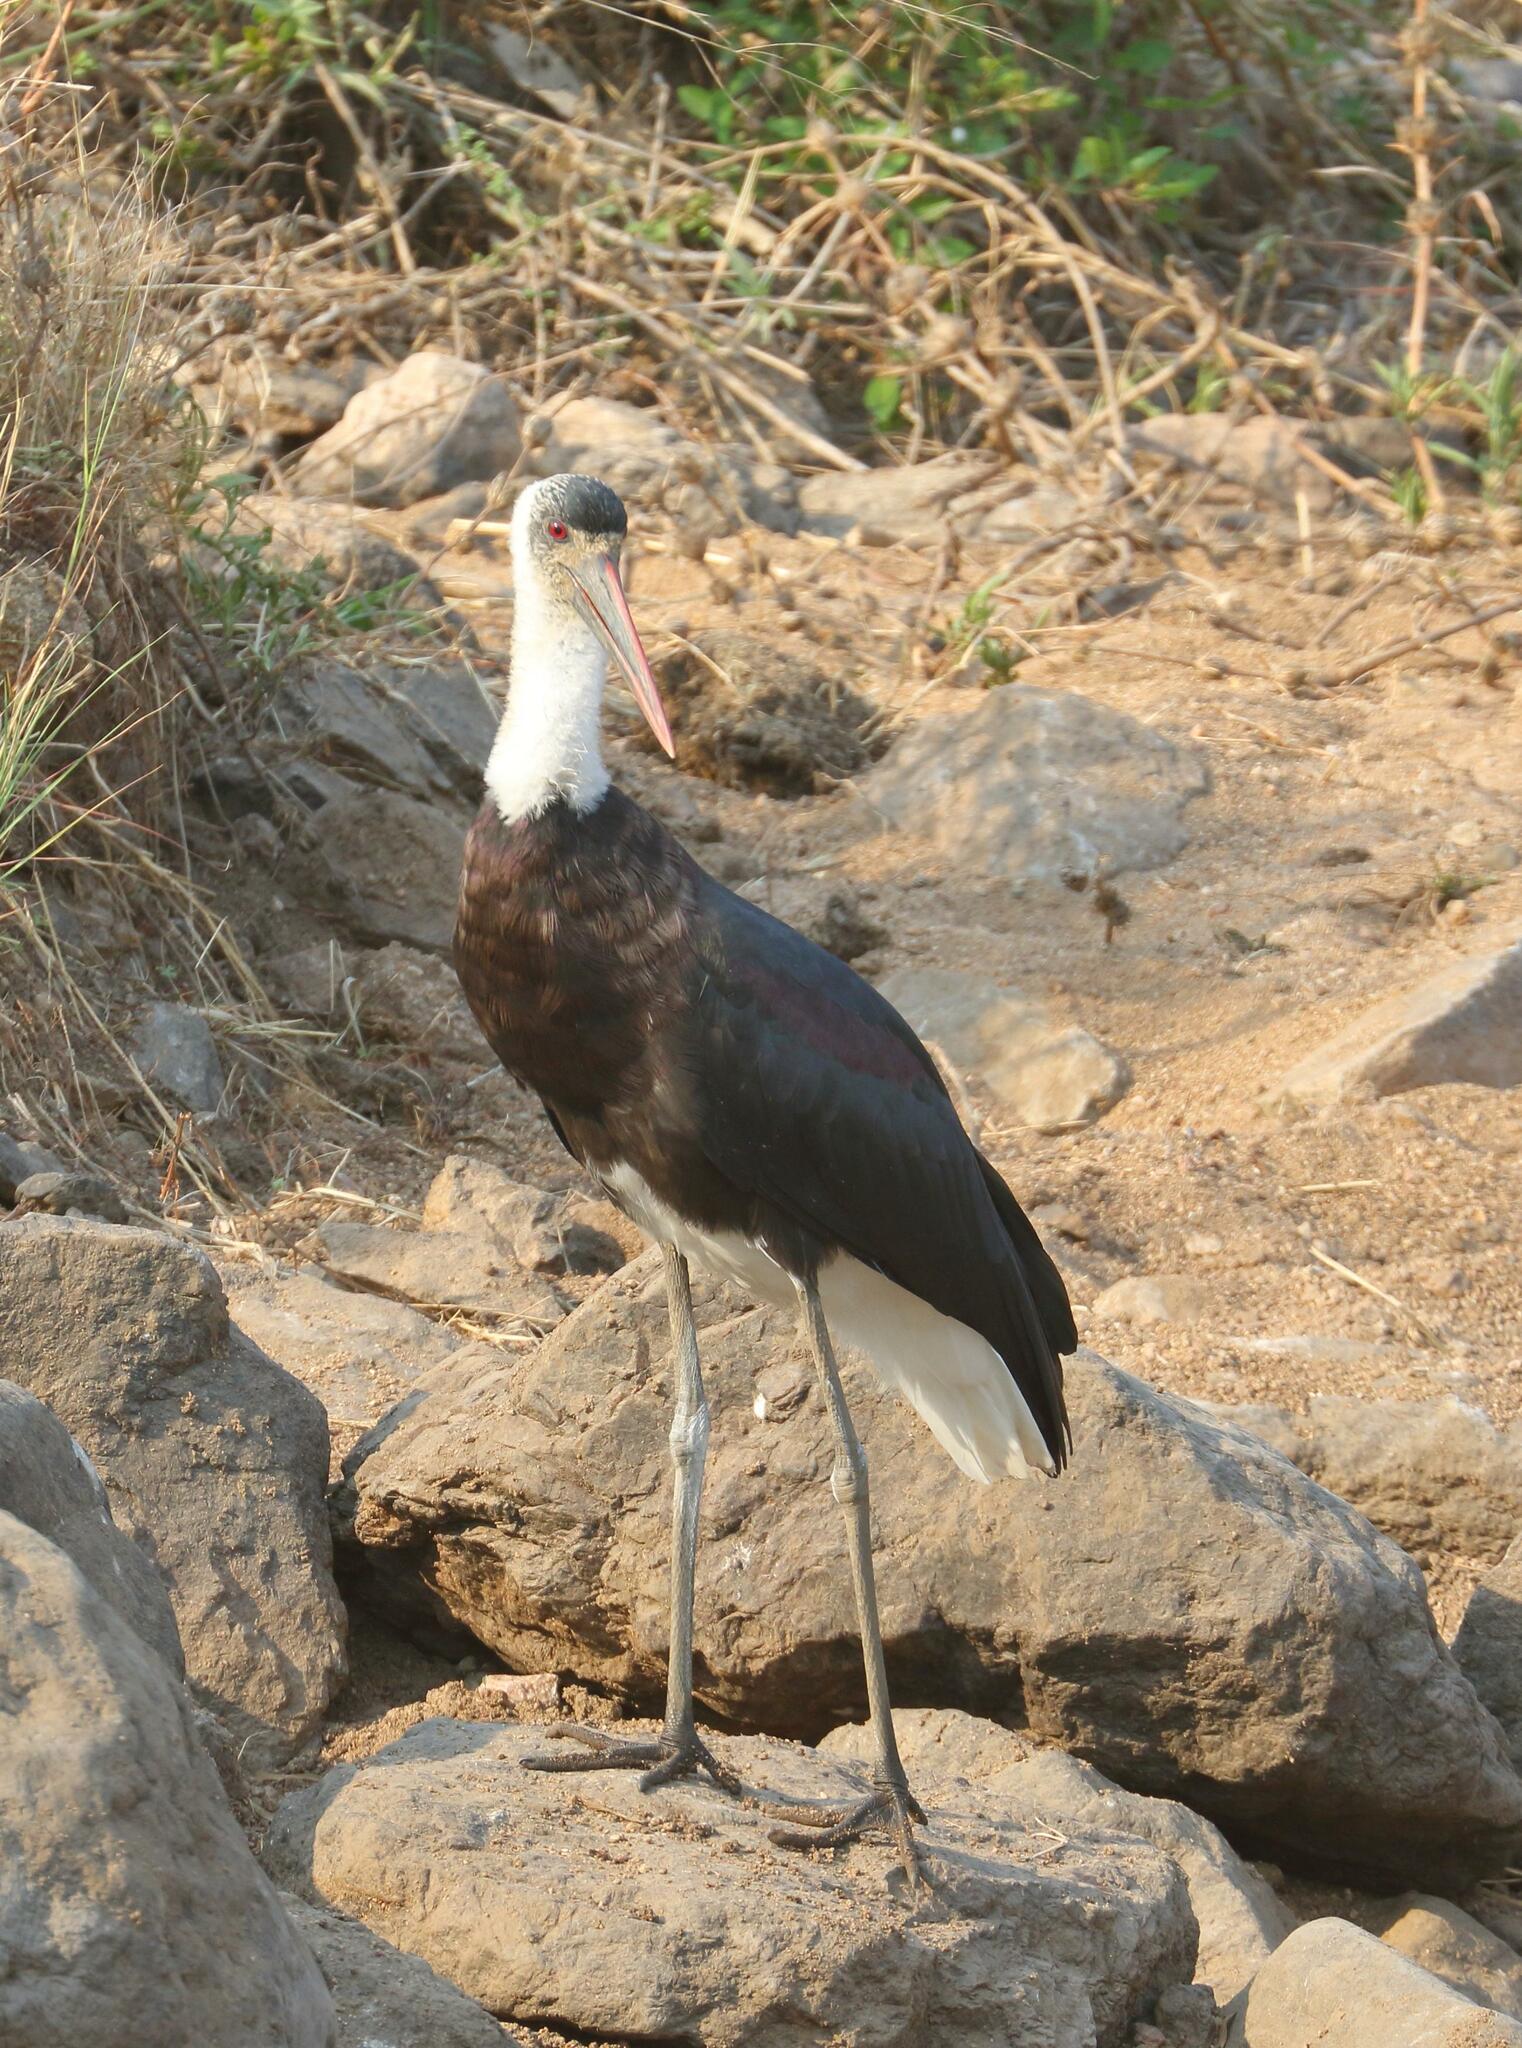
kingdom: Animalia
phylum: Chordata
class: Aves
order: Ciconiiformes
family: Ciconiidae
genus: Ciconia
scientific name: Ciconia microscelis
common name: African woollyneck
